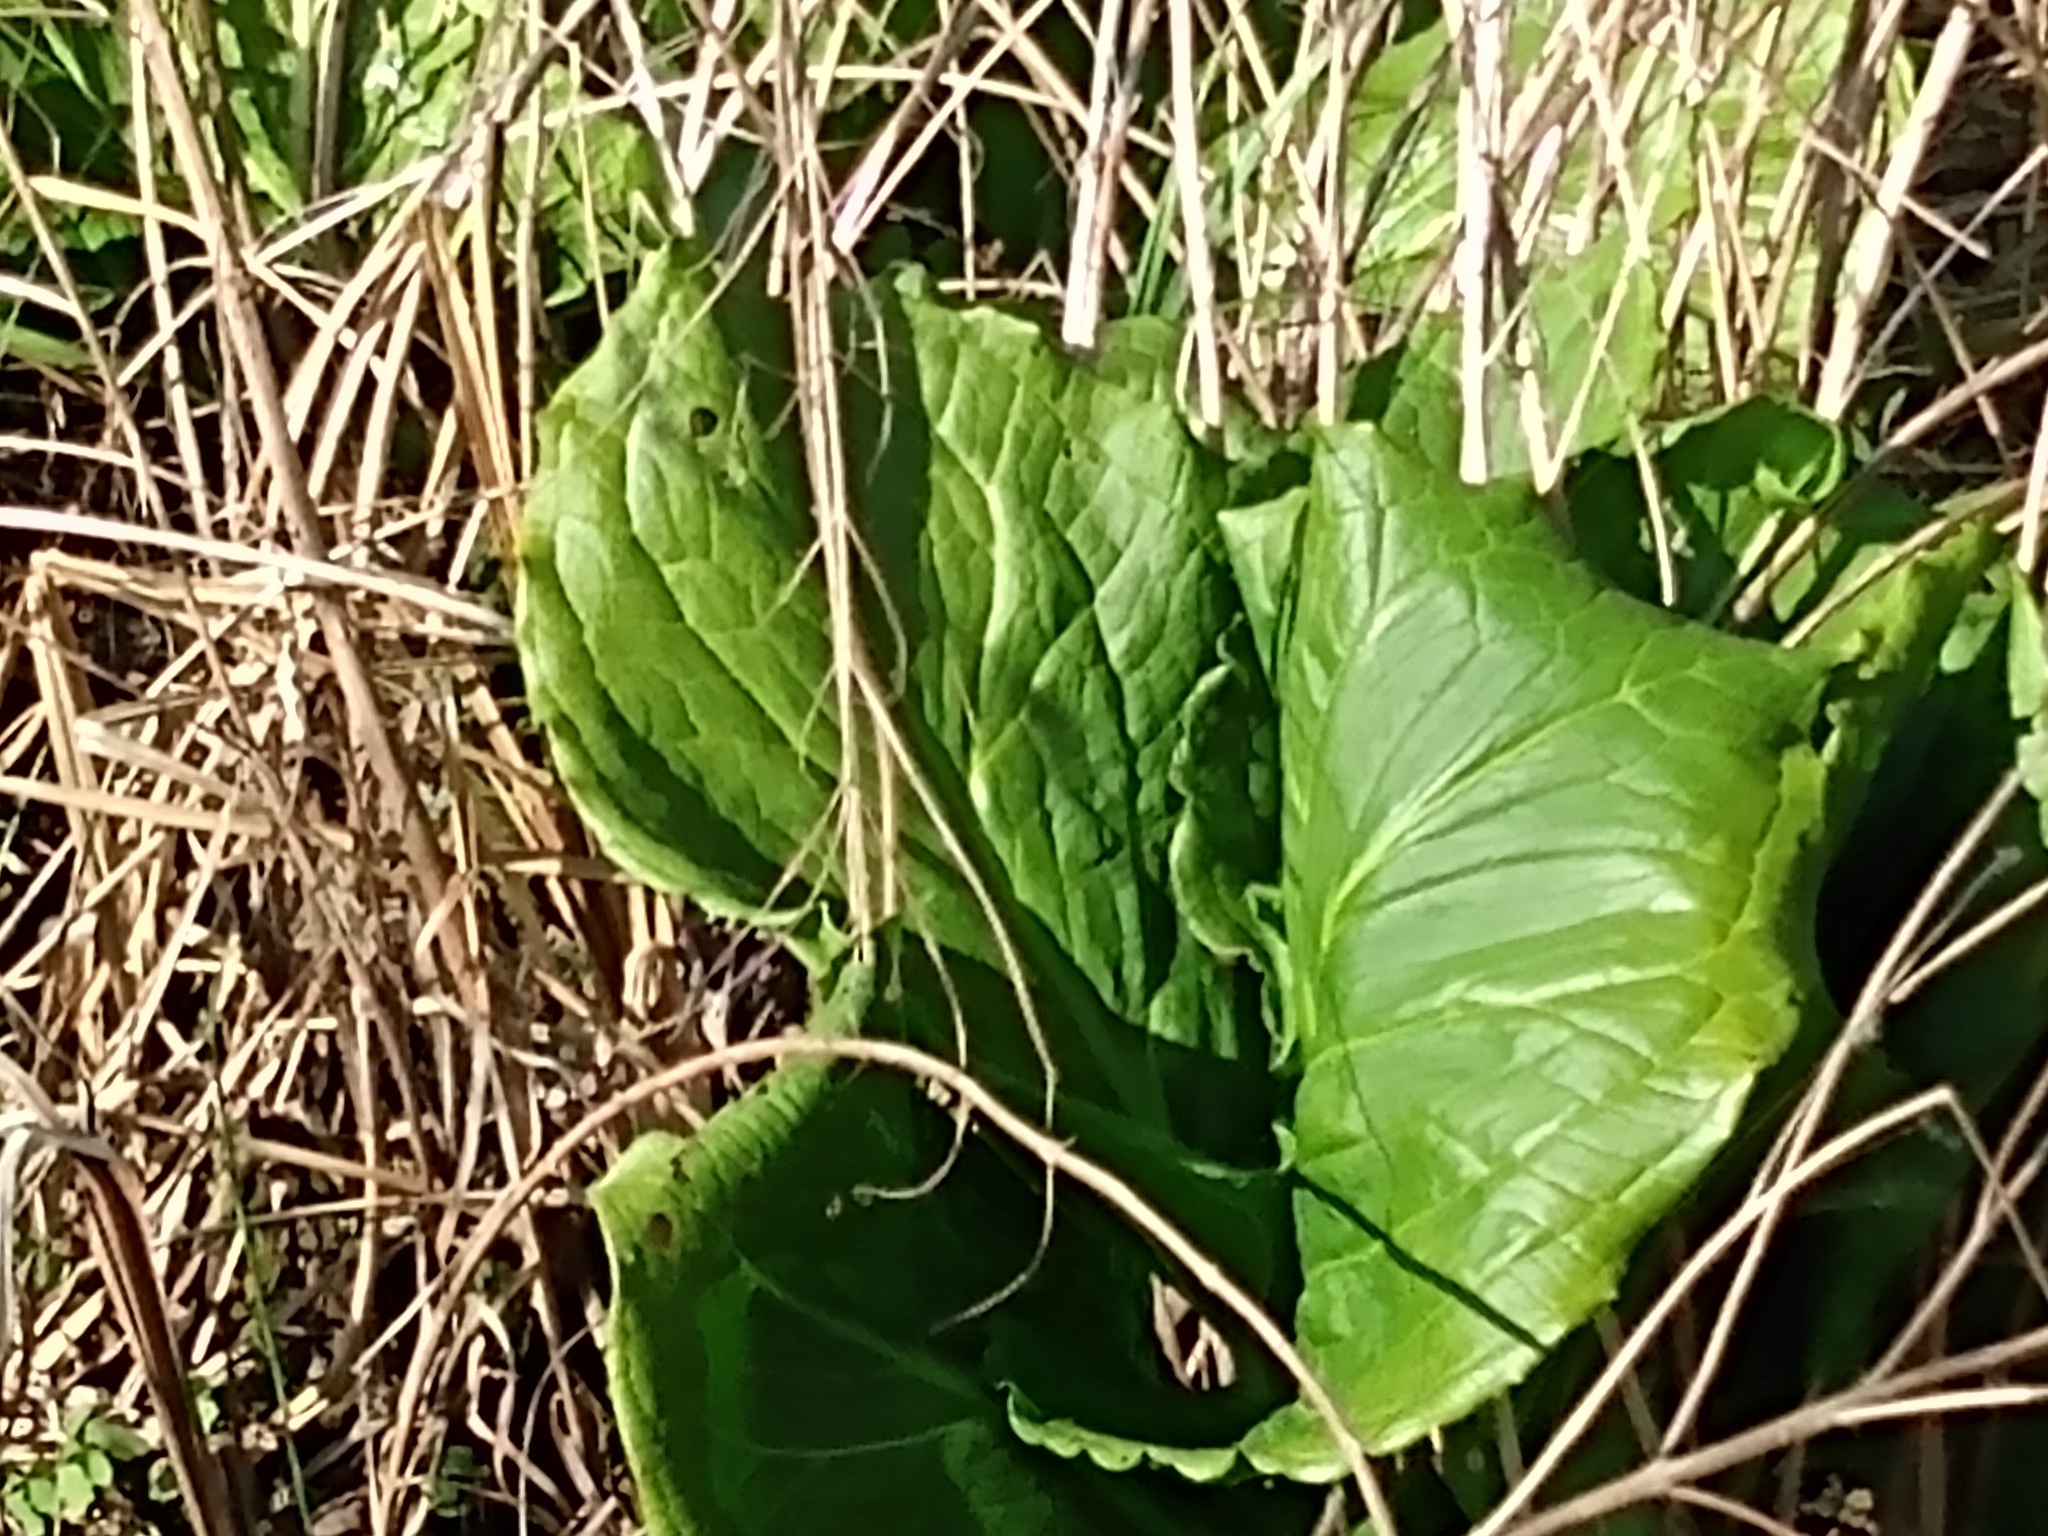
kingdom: Plantae
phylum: Tracheophyta
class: Liliopsida
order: Alismatales
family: Araceae
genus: Symplocarpus
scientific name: Symplocarpus foetidus
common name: Eastern skunk cabbage
